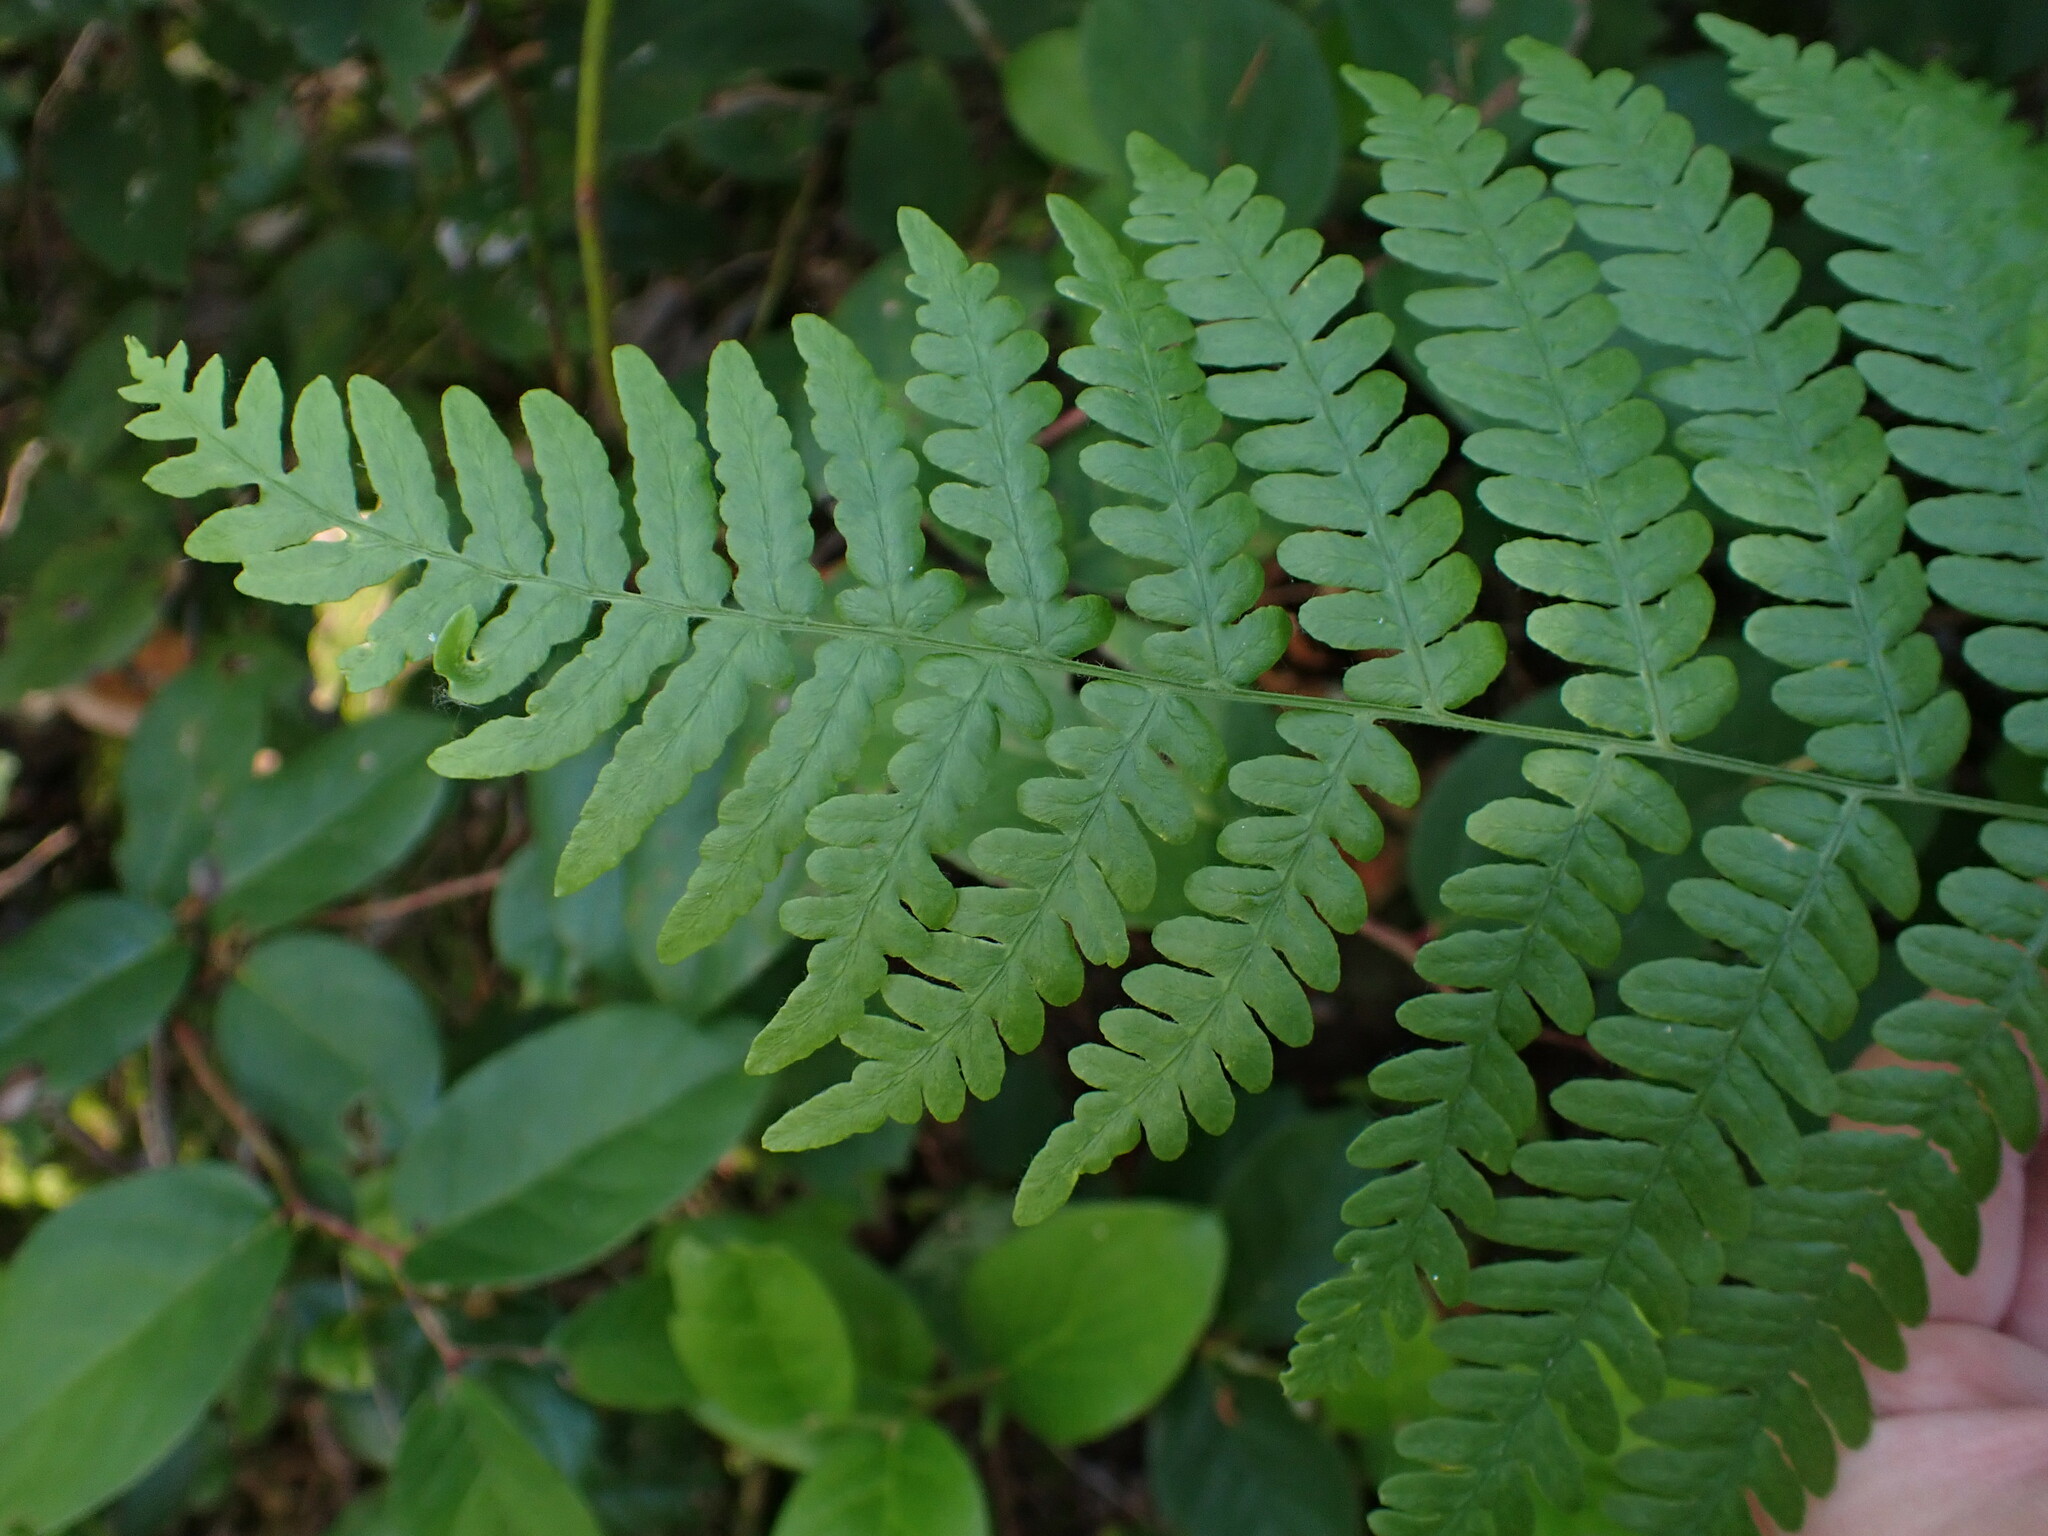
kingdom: Plantae
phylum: Tracheophyta
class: Polypodiopsida
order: Polypodiales
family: Dennstaedtiaceae
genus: Pteridium
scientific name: Pteridium aquilinum
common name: Bracken
